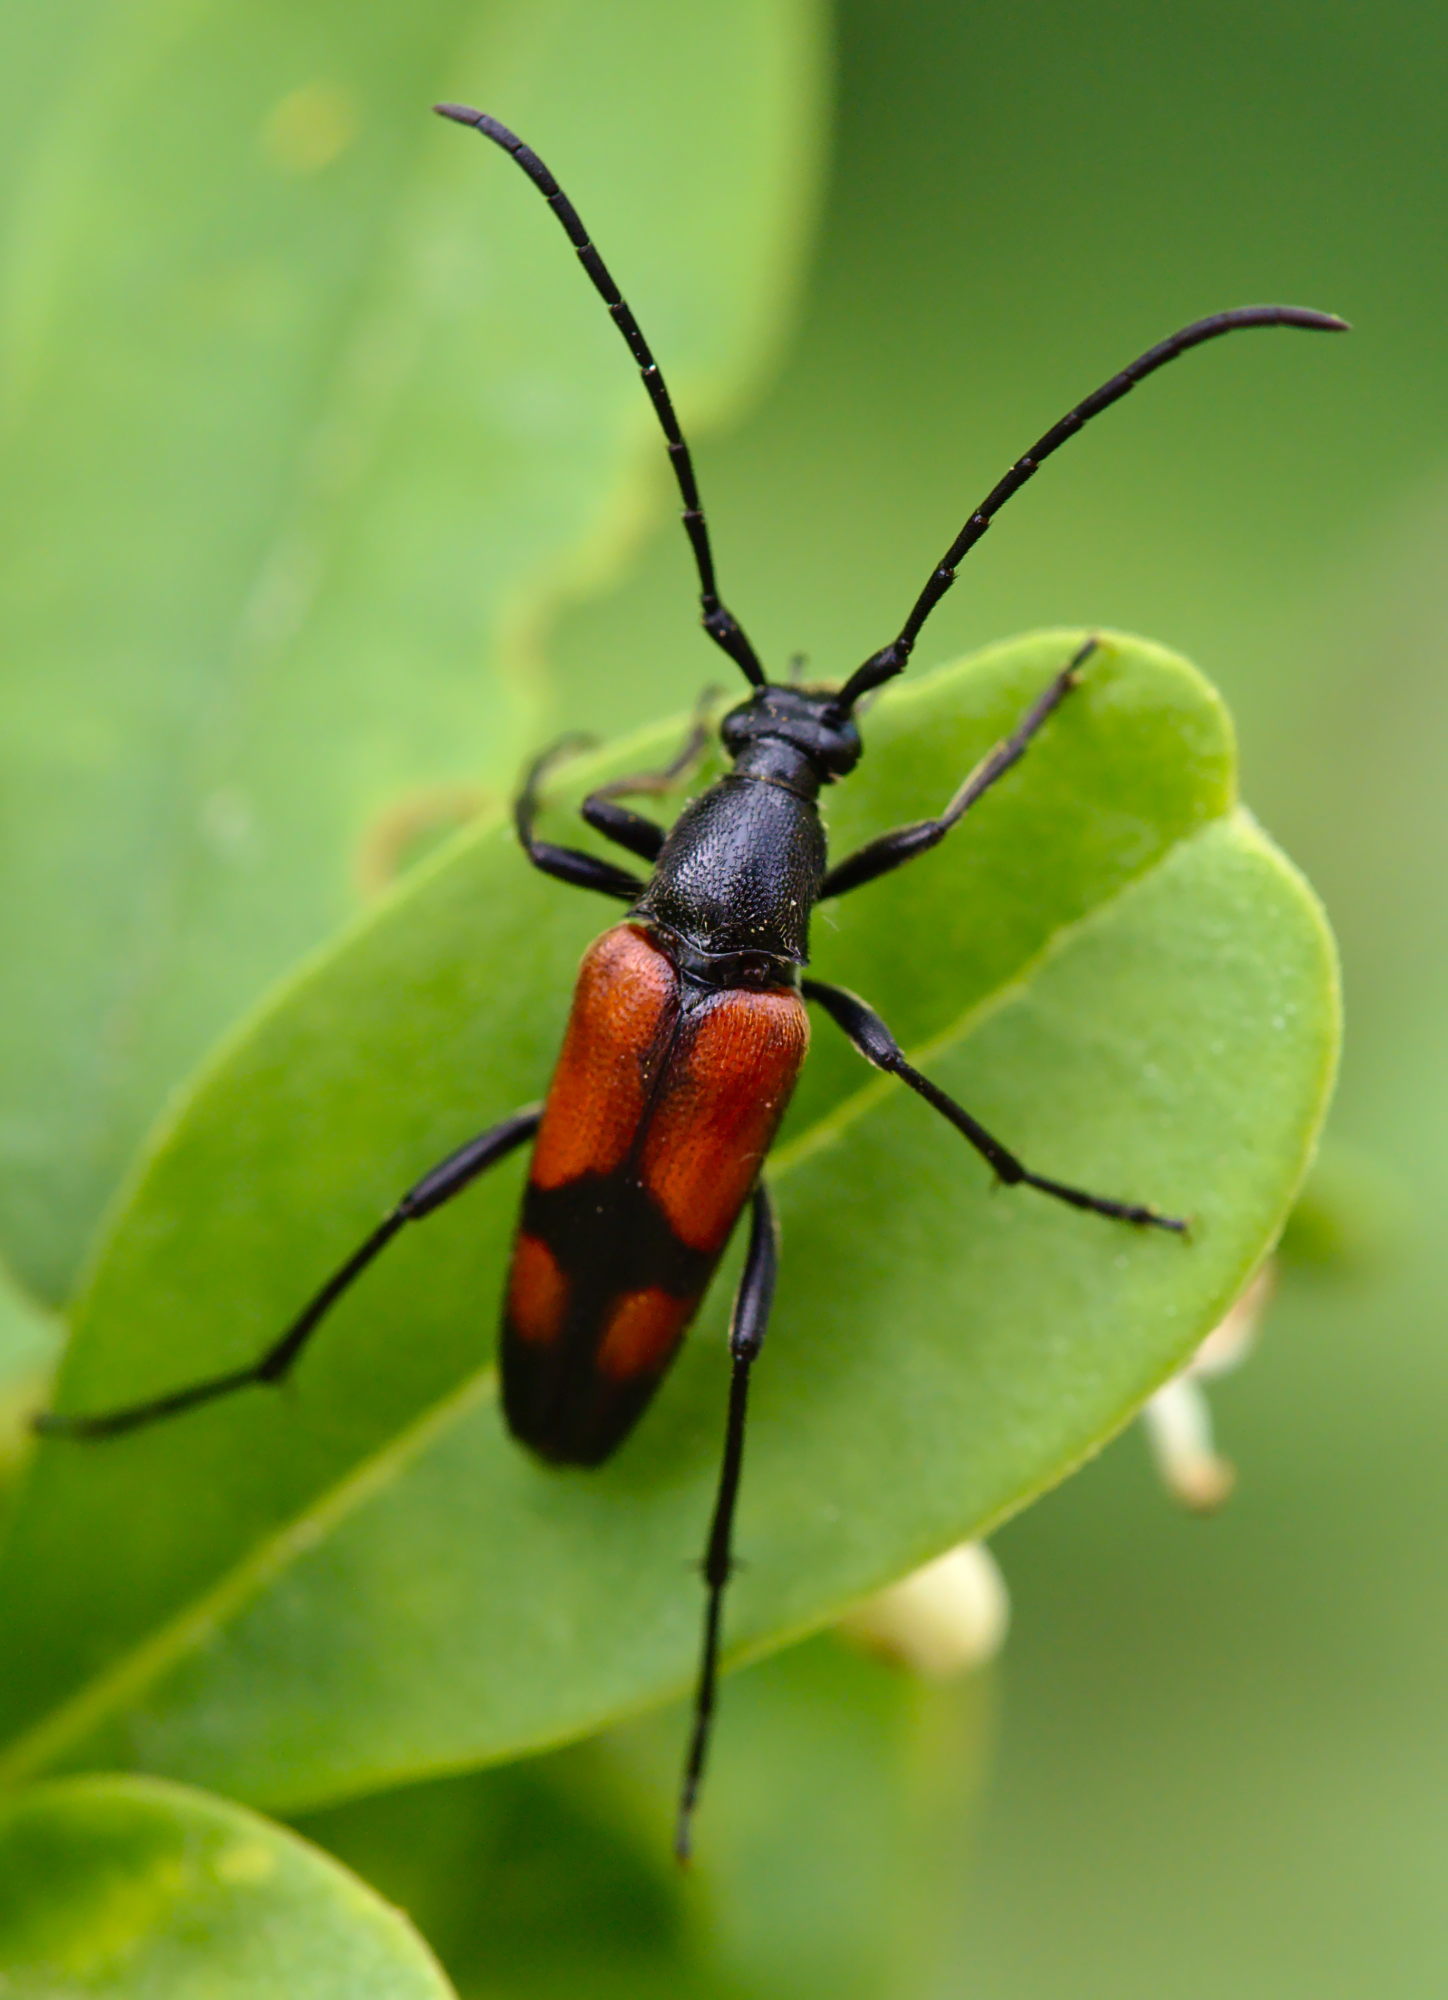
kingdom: Animalia
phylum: Arthropoda
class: Insecta
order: Coleoptera
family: Cerambycidae
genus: Stenurella
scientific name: Stenurella bifasciata
